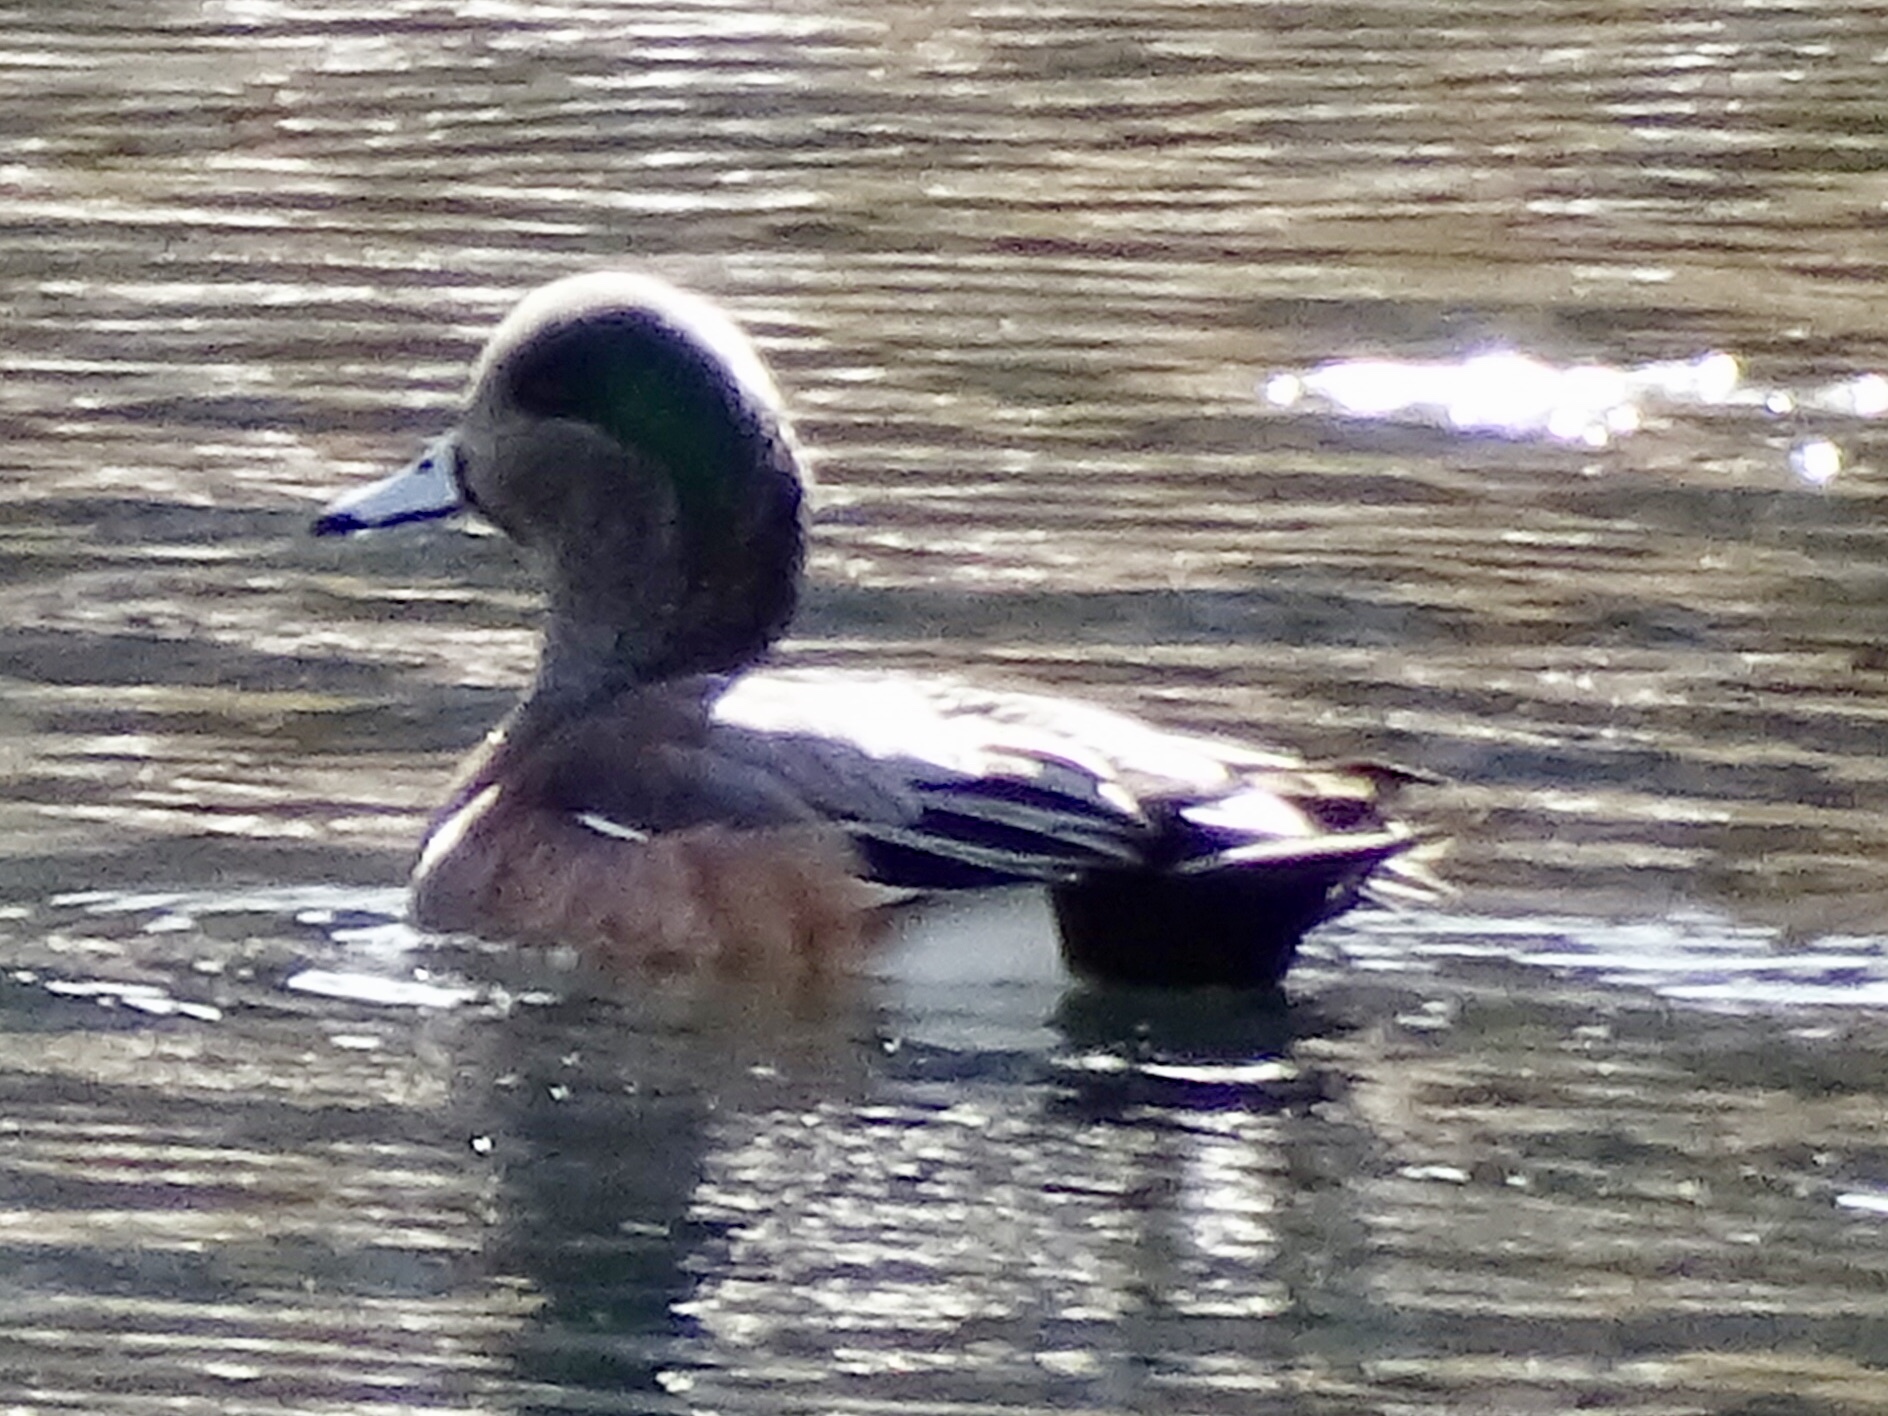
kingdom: Animalia
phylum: Chordata
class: Aves
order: Anseriformes
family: Anatidae
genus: Mareca
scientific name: Mareca americana
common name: American wigeon
